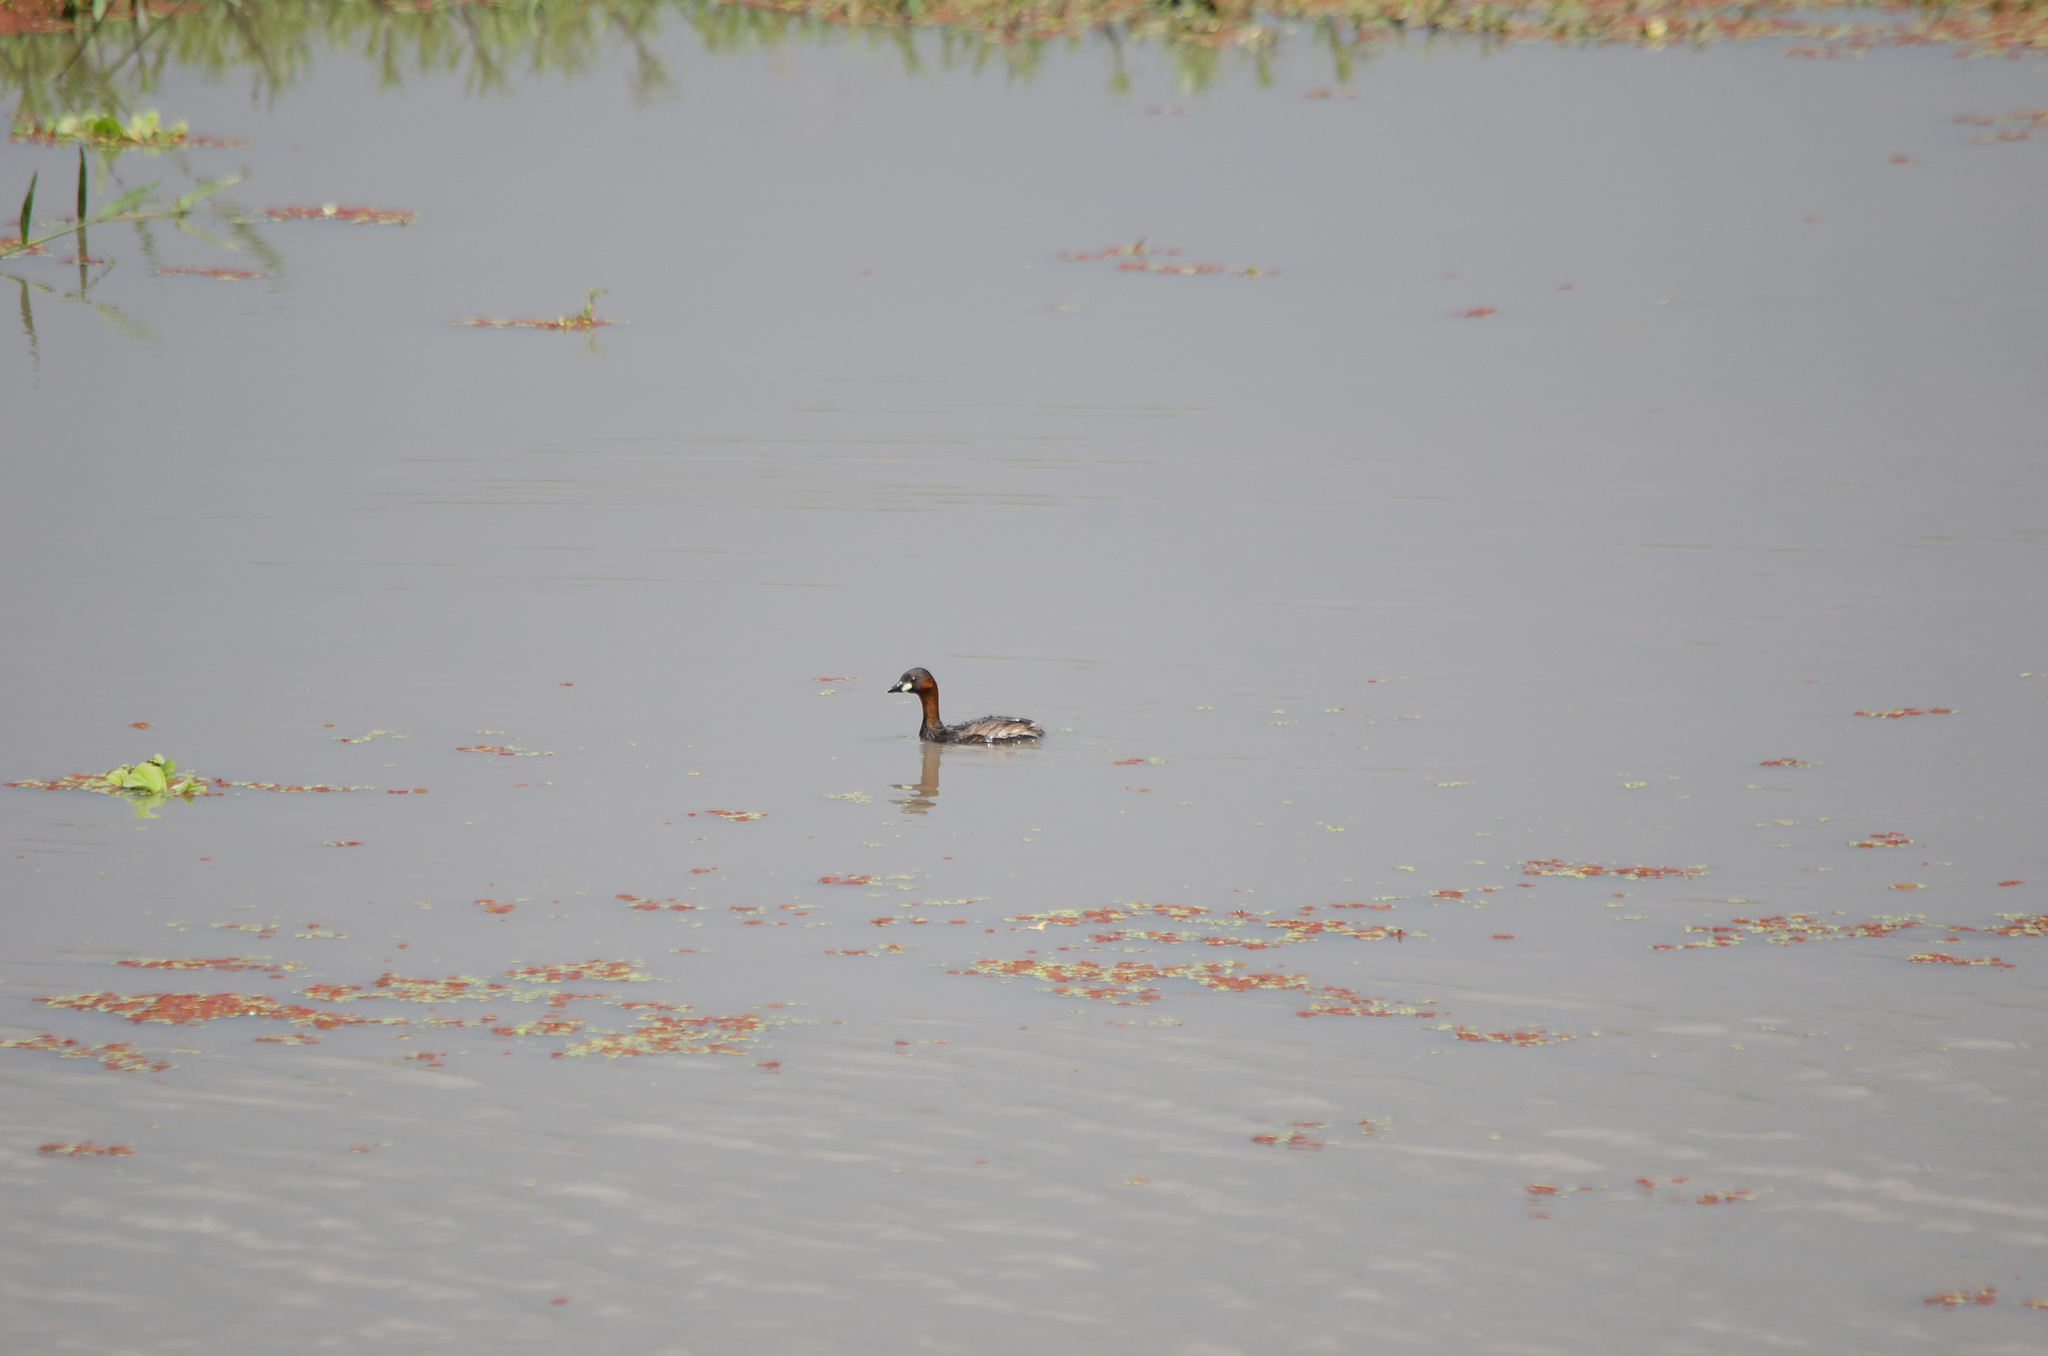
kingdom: Animalia
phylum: Chordata
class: Aves
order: Podicipediformes
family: Podicipedidae
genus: Tachybaptus
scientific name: Tachybaptus ruficollis
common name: Little grebe
